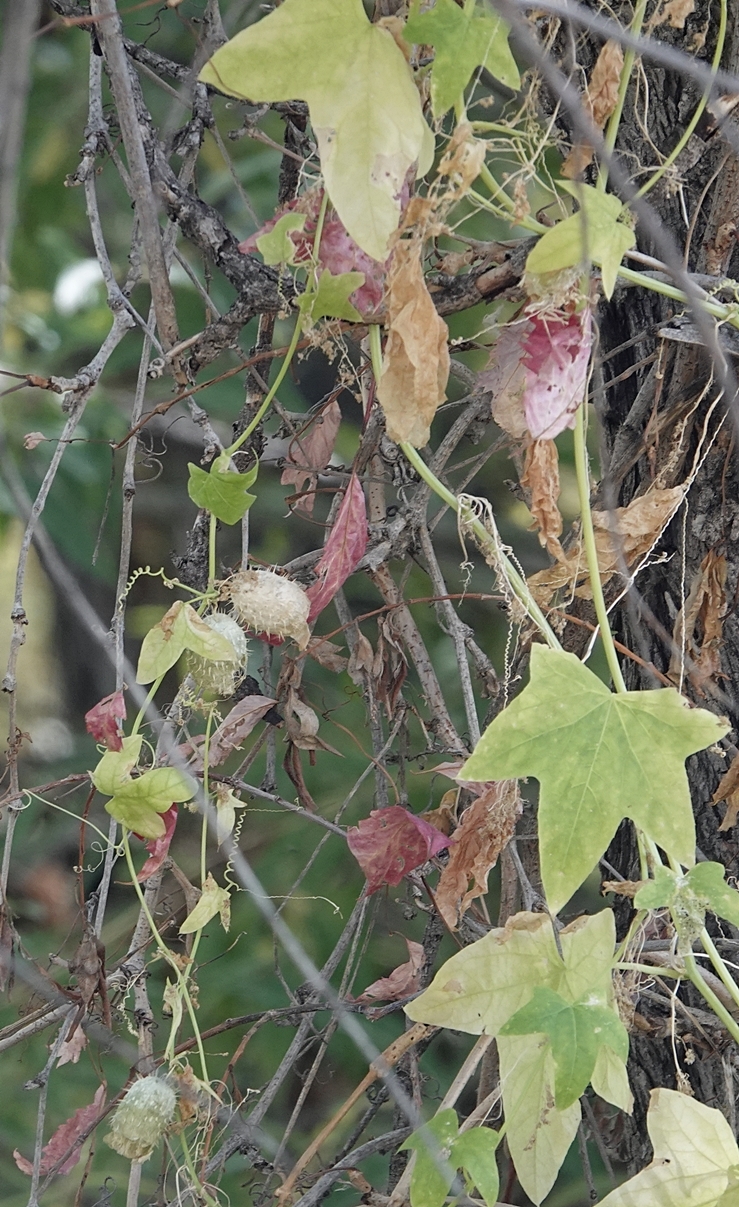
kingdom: Plantae
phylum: Tracheophyta
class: Magnoliopsida
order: Cucurbitales
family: Cucurbitaceae
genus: Echinocystis
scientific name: Echinocystis lobata
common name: Wild cucumber
